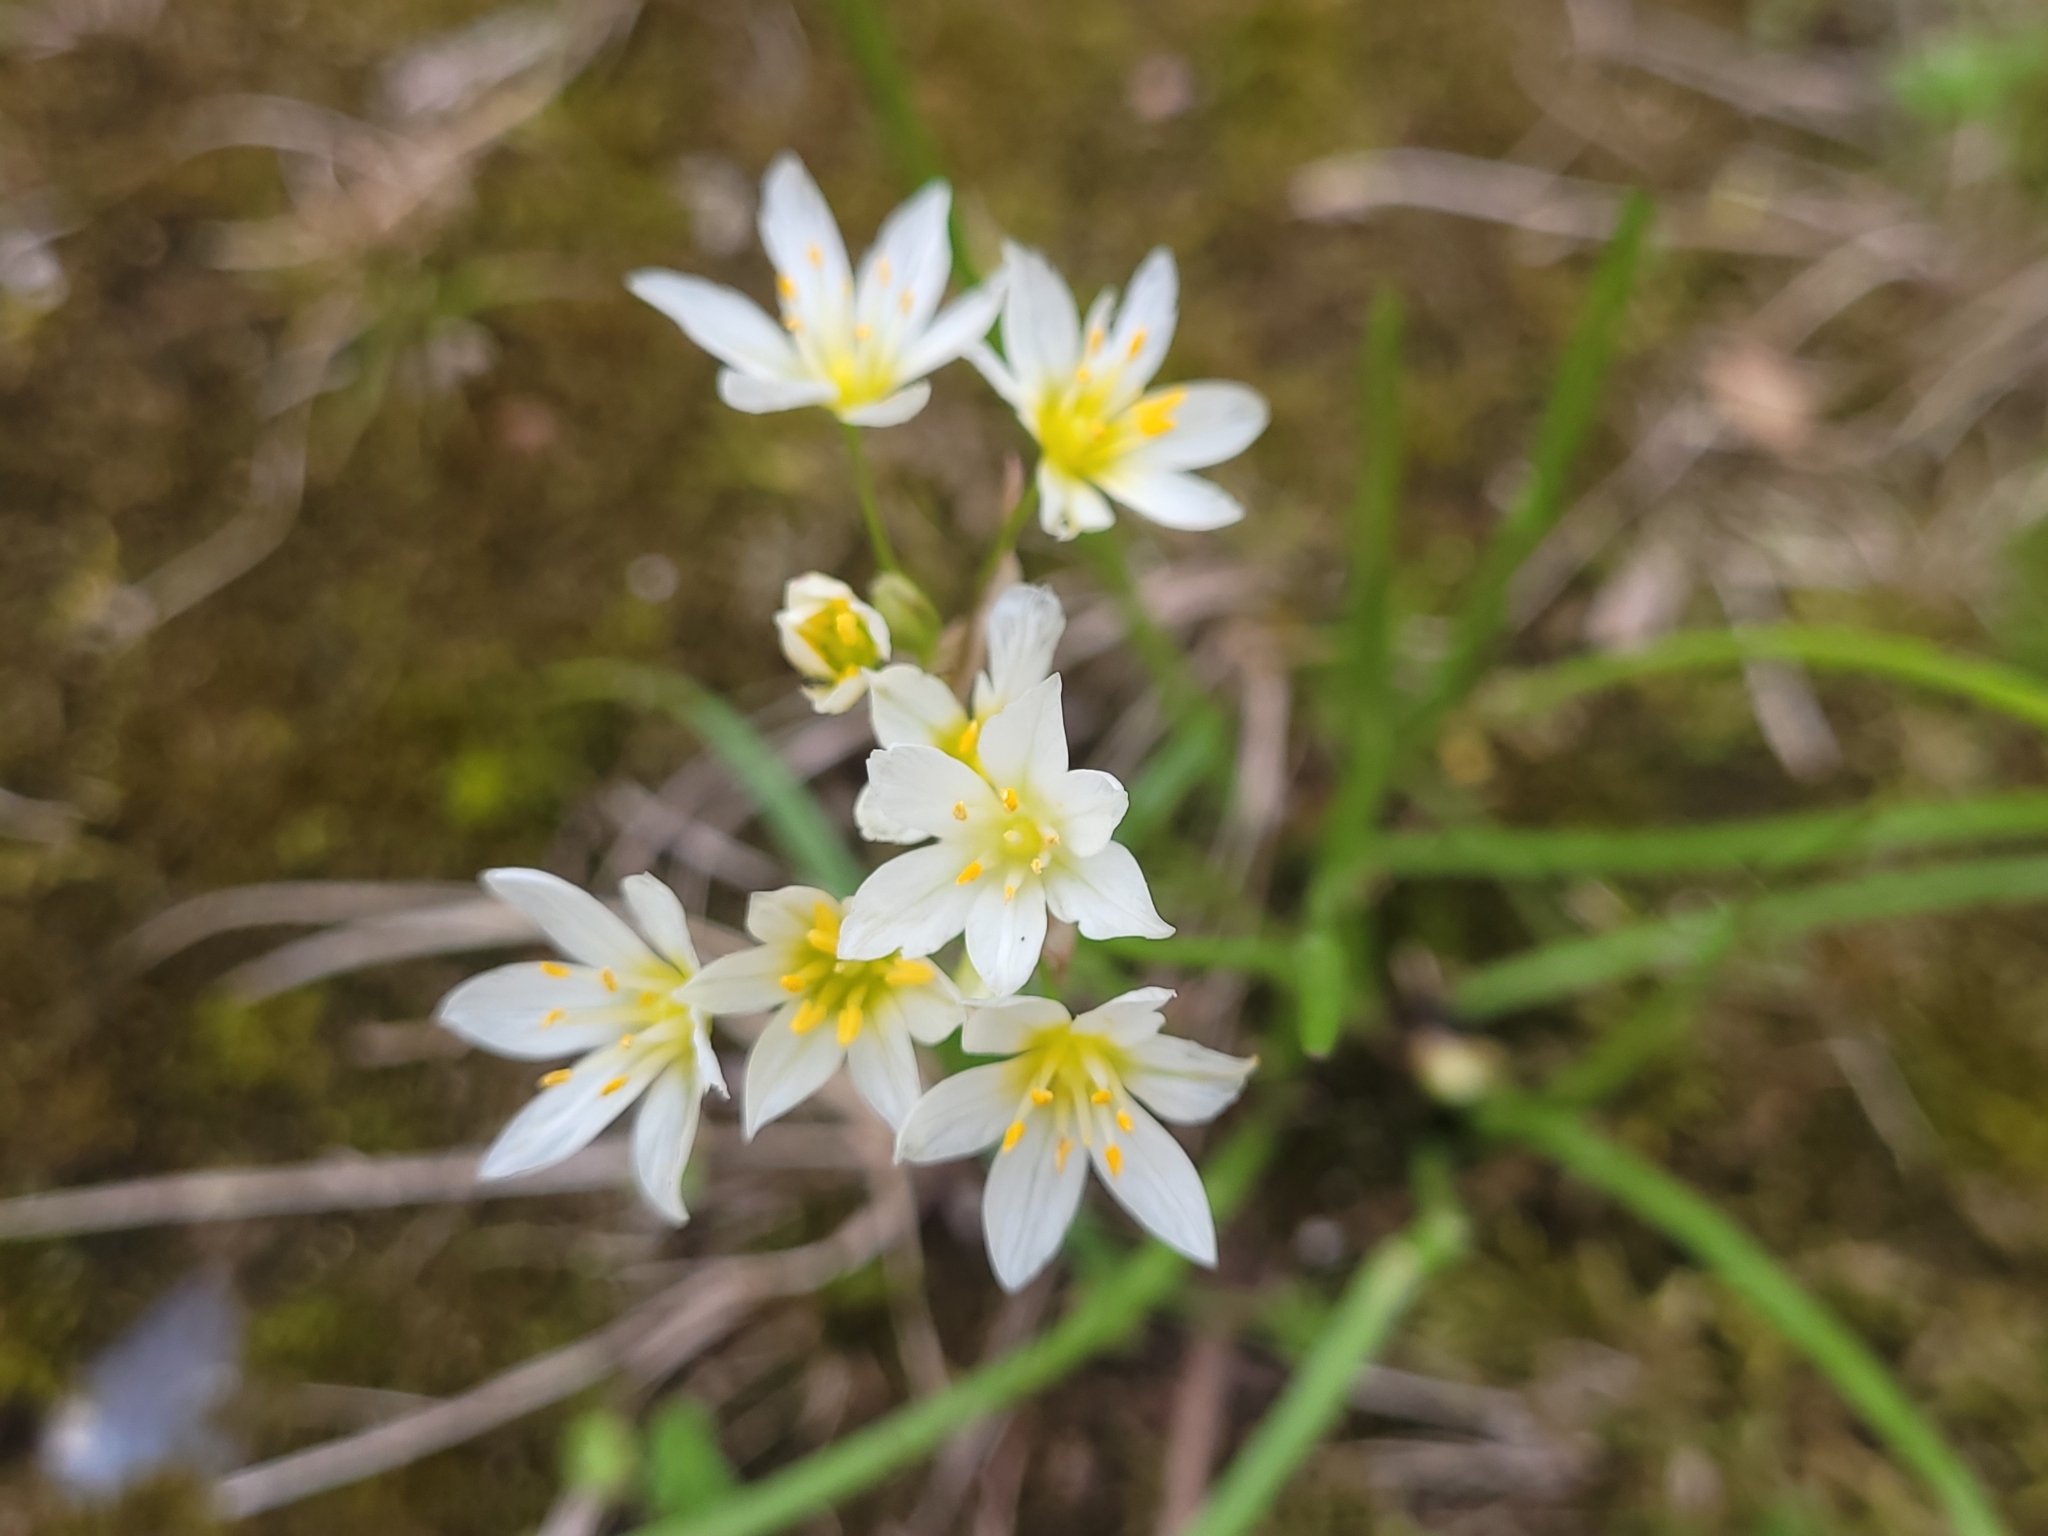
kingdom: Plantae
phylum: Tracheophyta
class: Liliopsida
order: Asparagales
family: Amaryllidaceae
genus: Nothoscordum
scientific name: Nothoscordum bivalve
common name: Crow-poison
